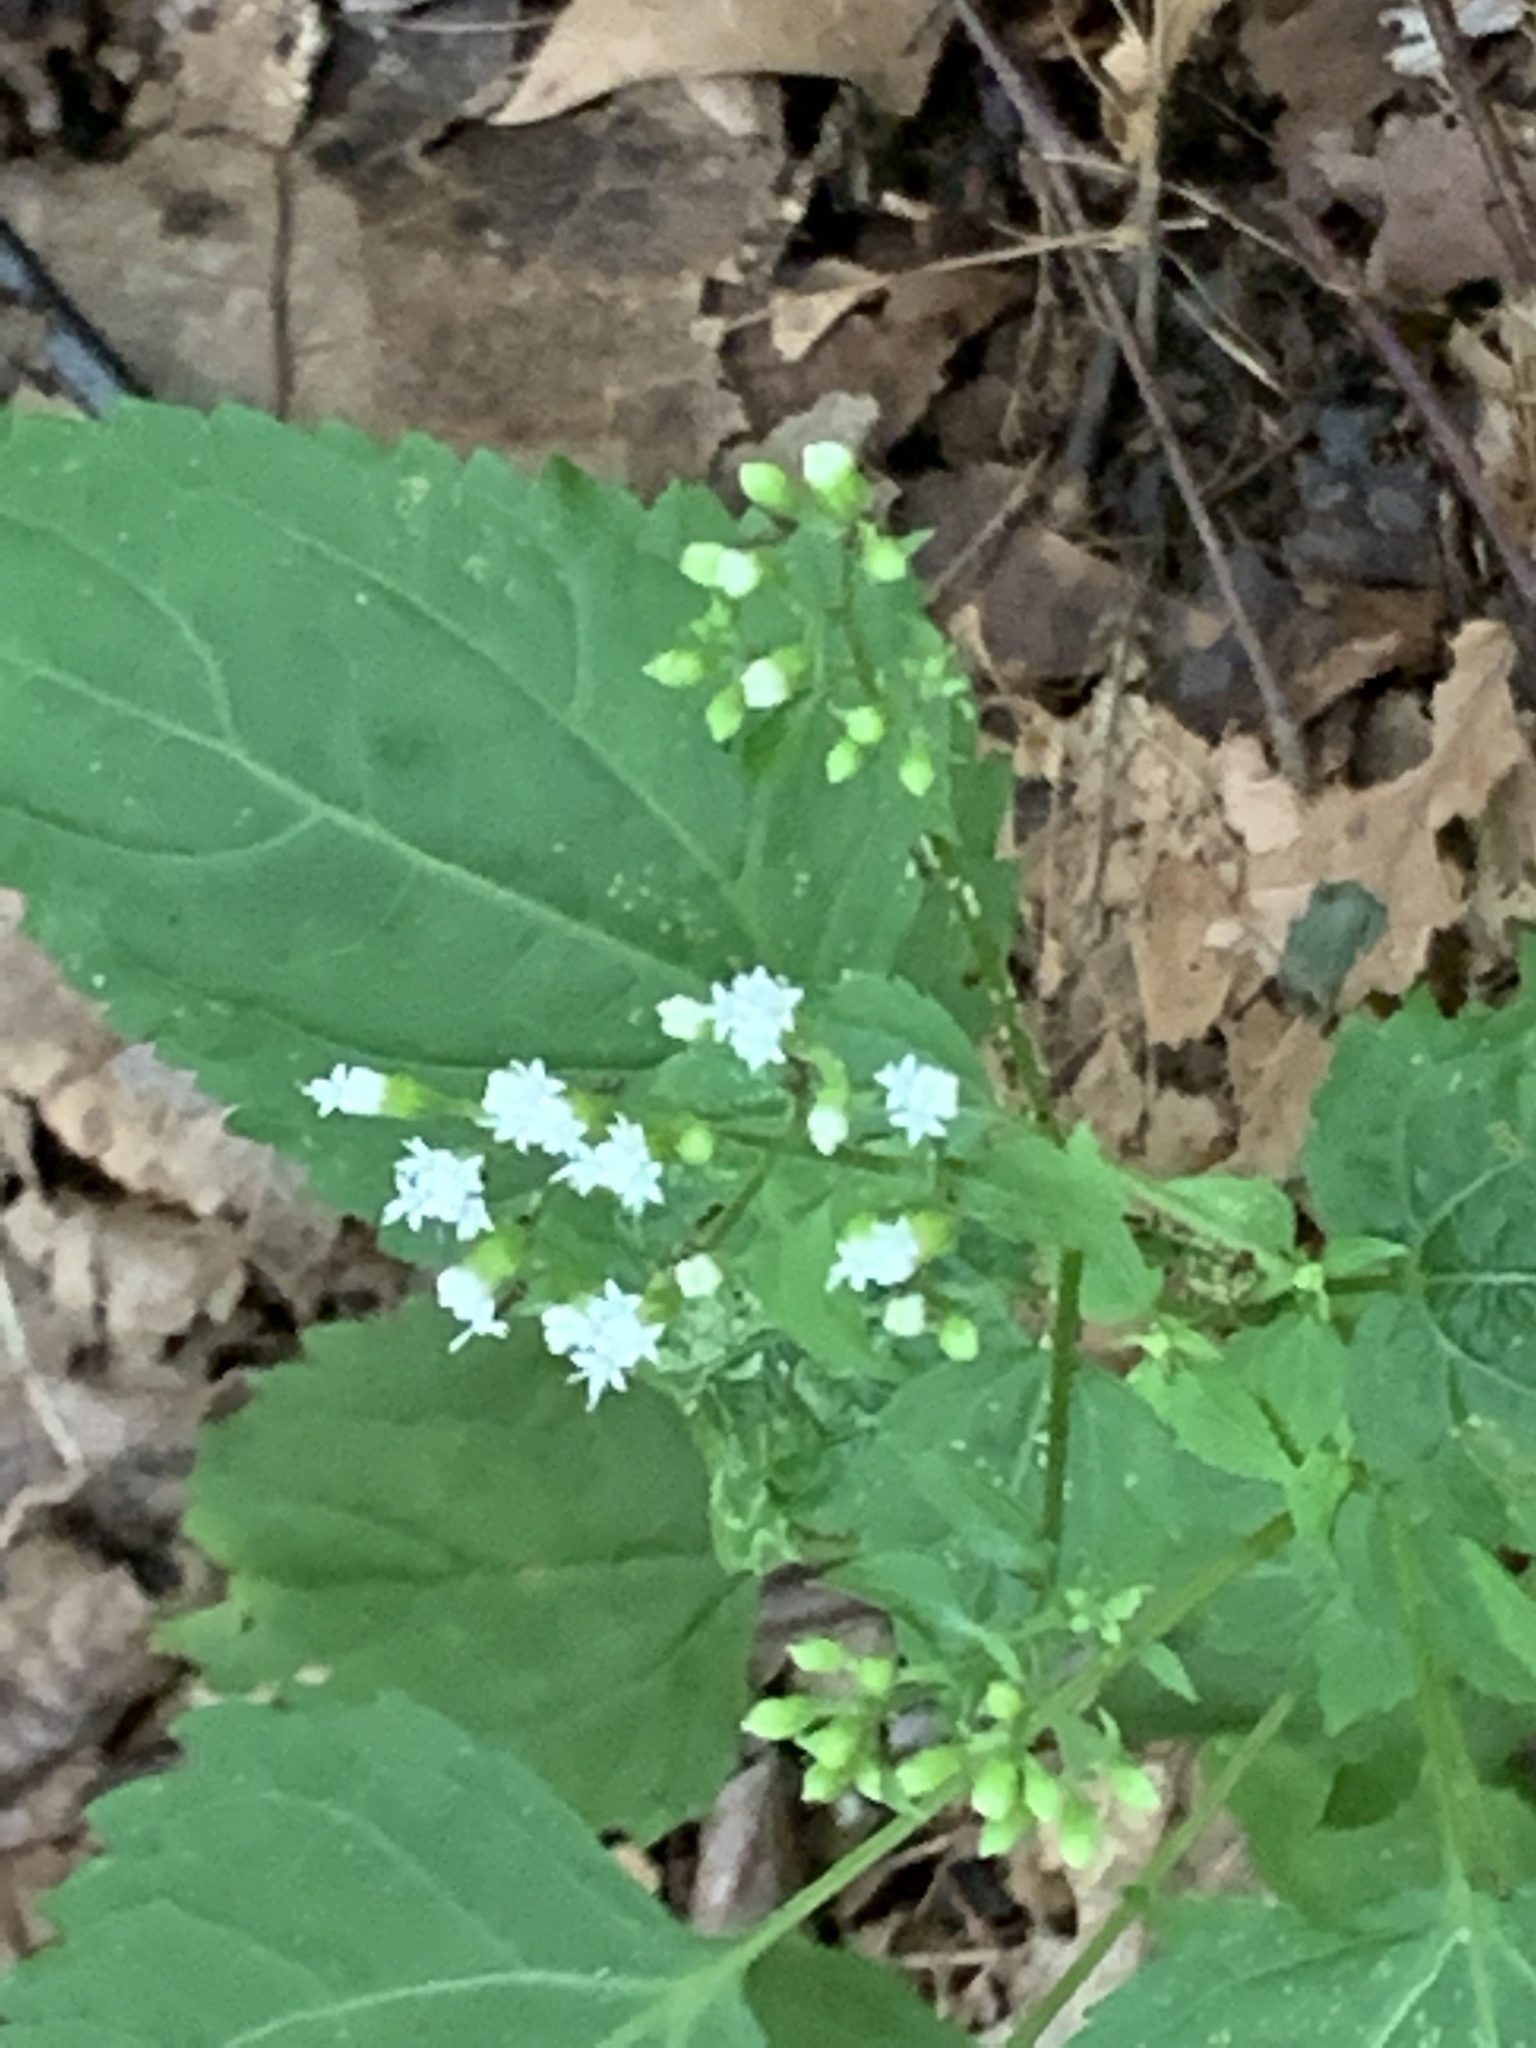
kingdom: Plantae
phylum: Tracheophyta
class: Magnoliopsida
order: Asterales
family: Asteraceae
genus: Ageratina
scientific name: Ageratina altissima
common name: White snakeroot
